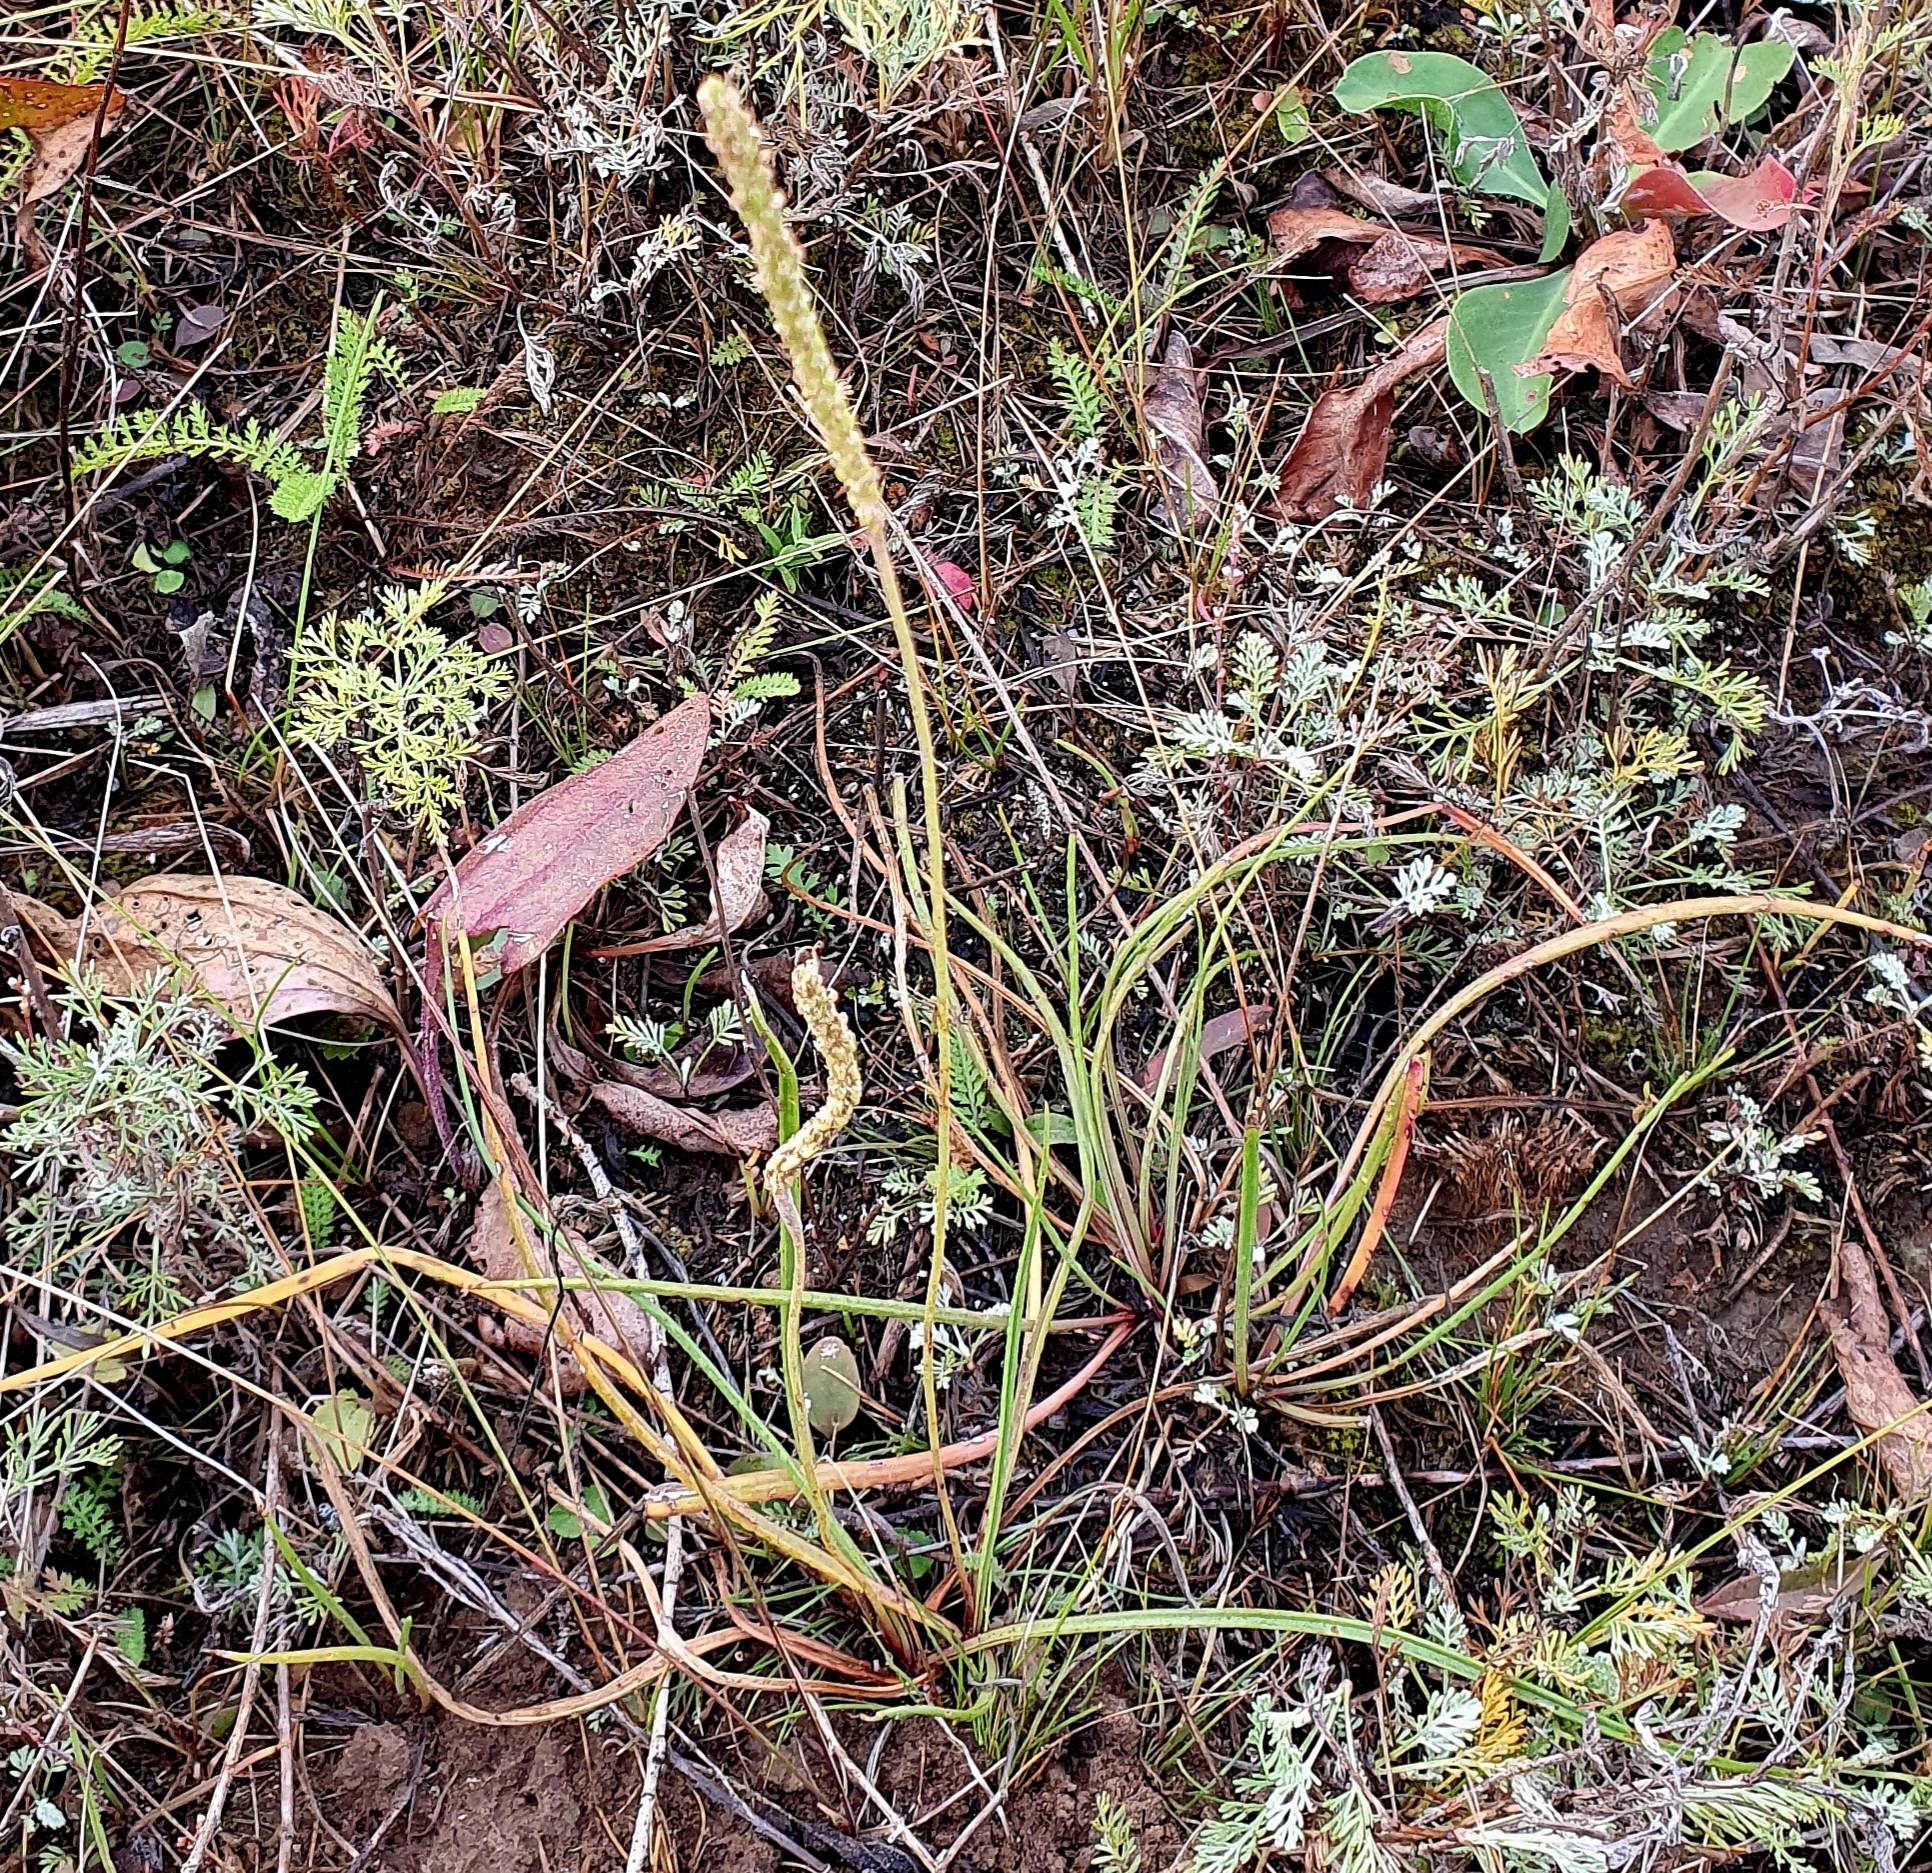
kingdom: Plantae
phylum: Tracheophyta
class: Magnoliopsida
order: Lamiales
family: Plantaginaceae
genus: Plantago
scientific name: Plantago salsa
